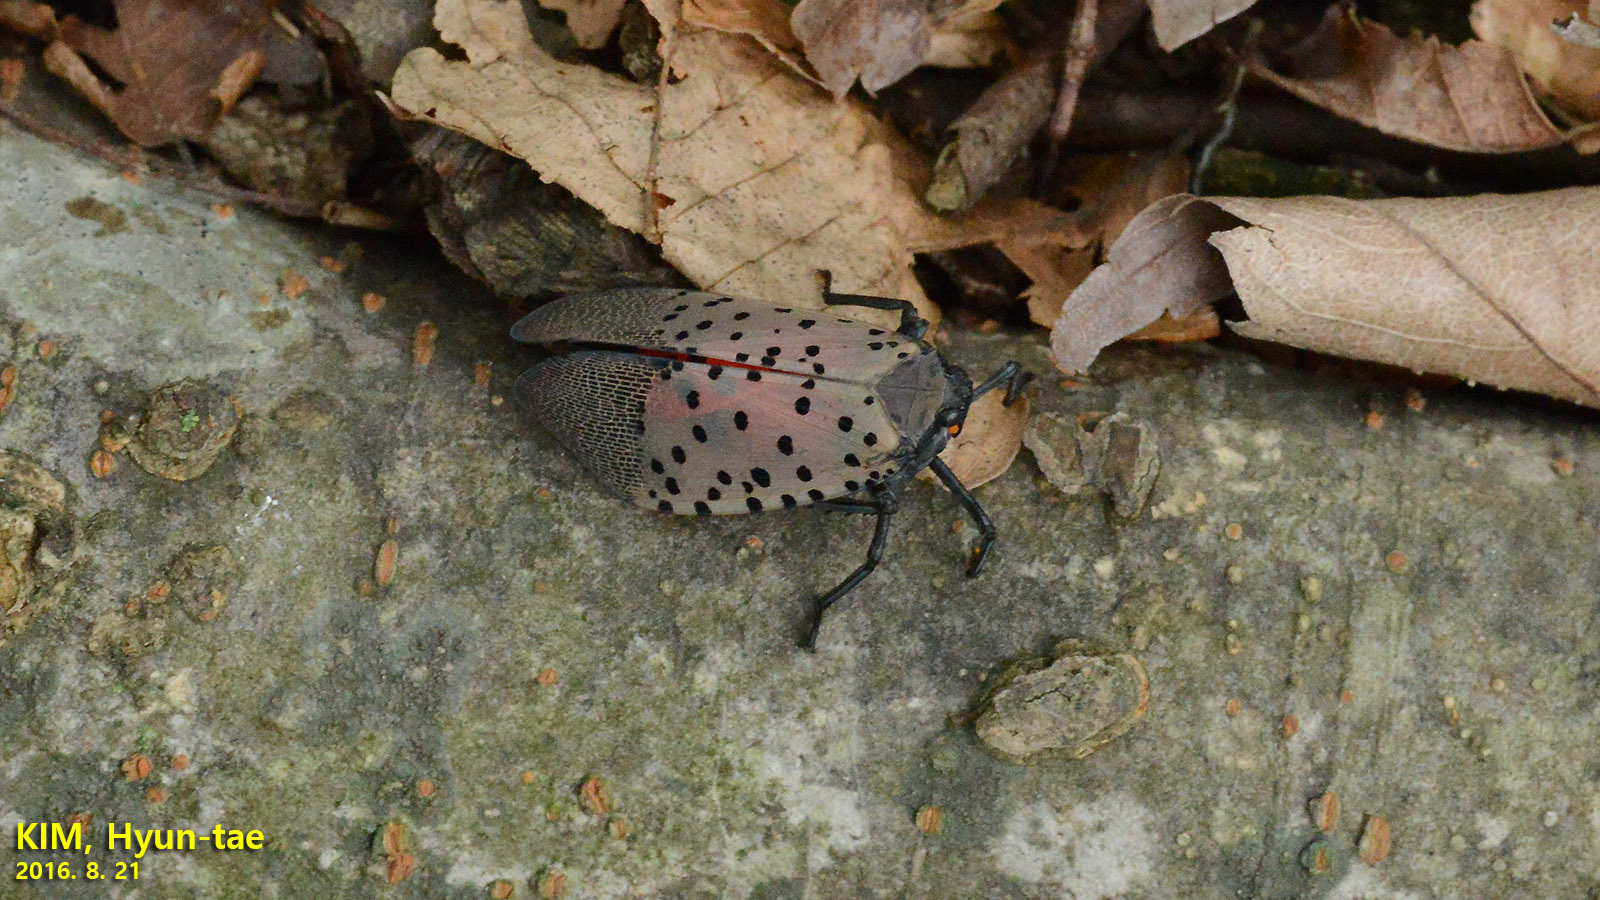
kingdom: Animalia
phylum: Arthropoda
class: Insecta
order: Hemiptera
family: Fulgoridae
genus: Lycorma
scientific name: Lycorma delicatula
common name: Spotted lanternfly
